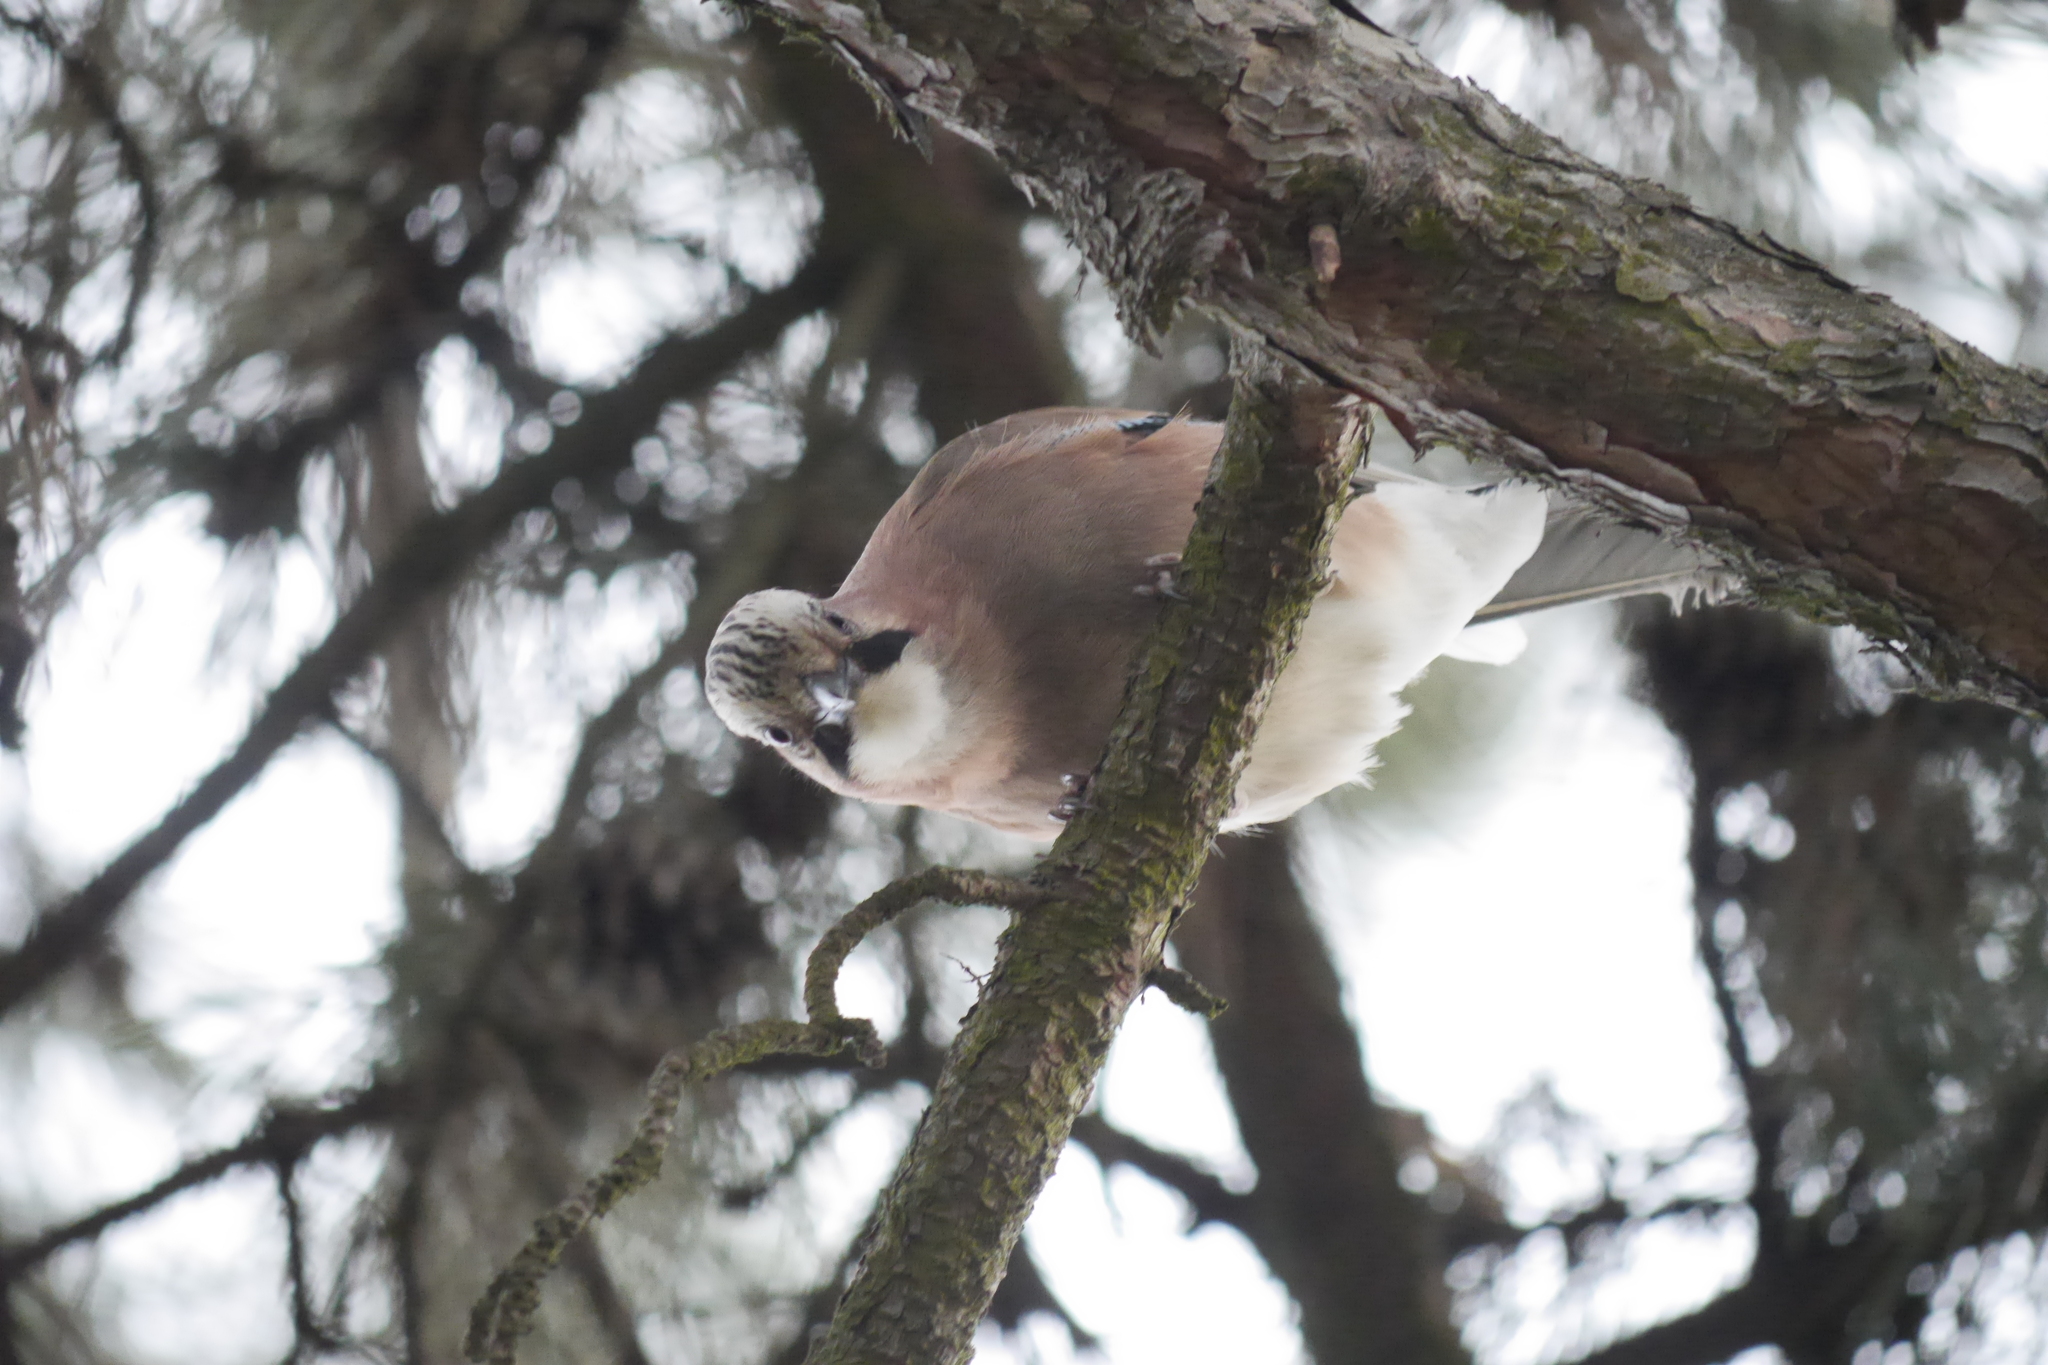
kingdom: Animalia
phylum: Chordata
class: Aves
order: Passeriformes
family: Corvidae
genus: Garrulus
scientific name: Garrulus glandarius
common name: Eurasian jay
